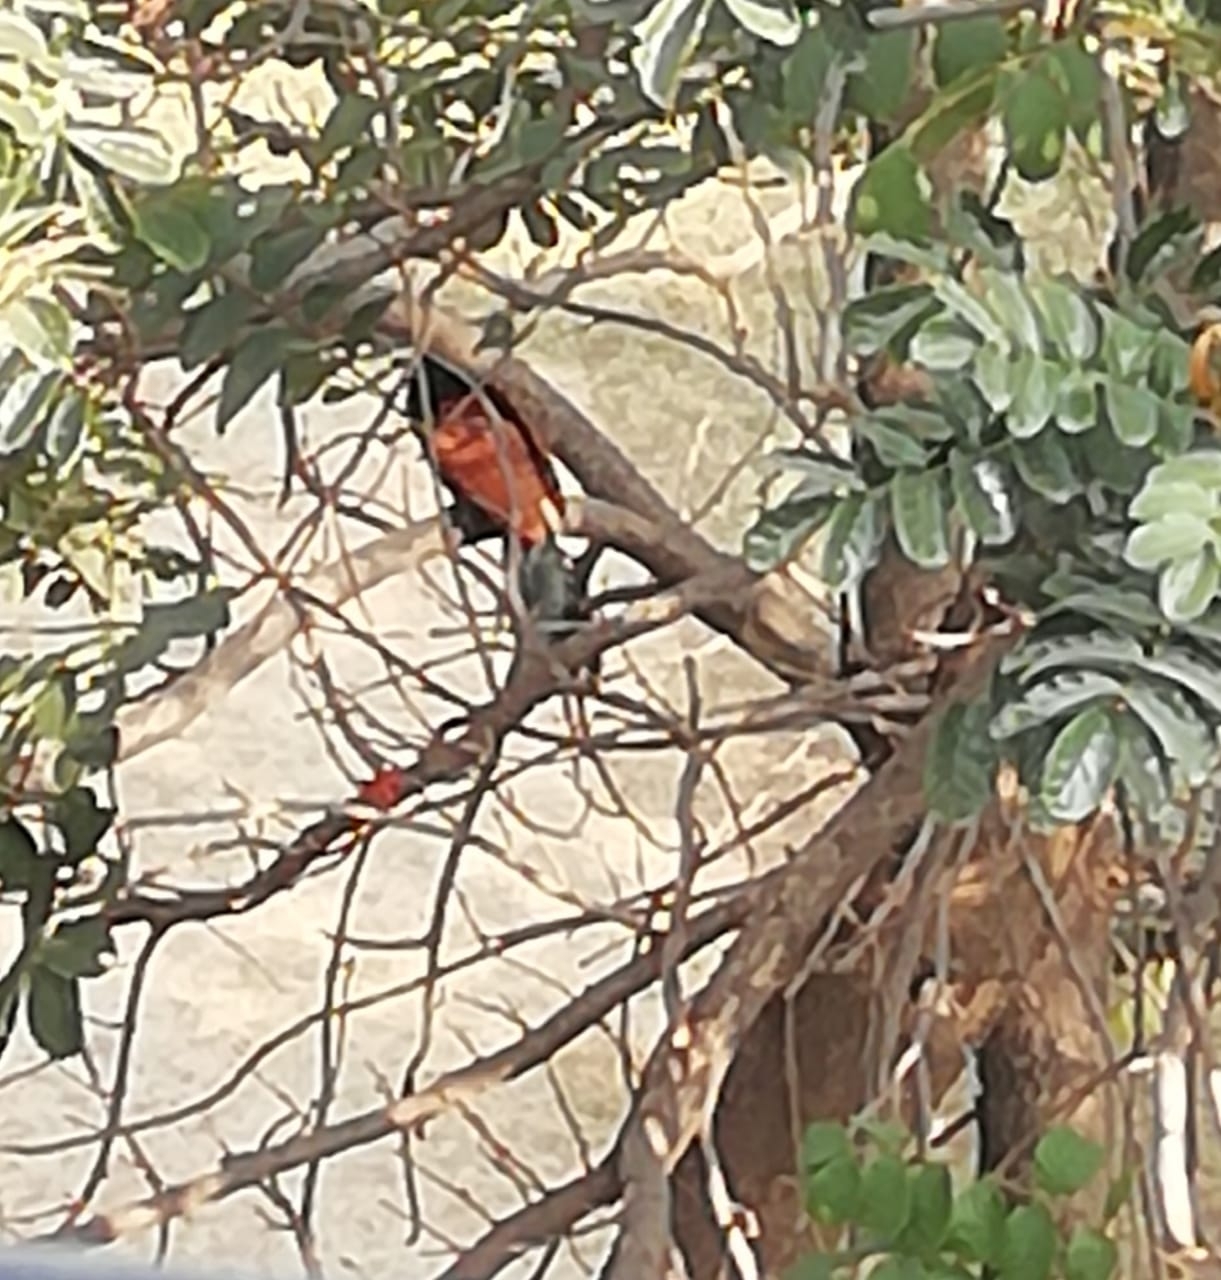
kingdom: Animalia
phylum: Chordata
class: Aves
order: Cuculiformes
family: Cuculidae
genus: Centropus
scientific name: Centropus sinensis
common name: Greater coucal
